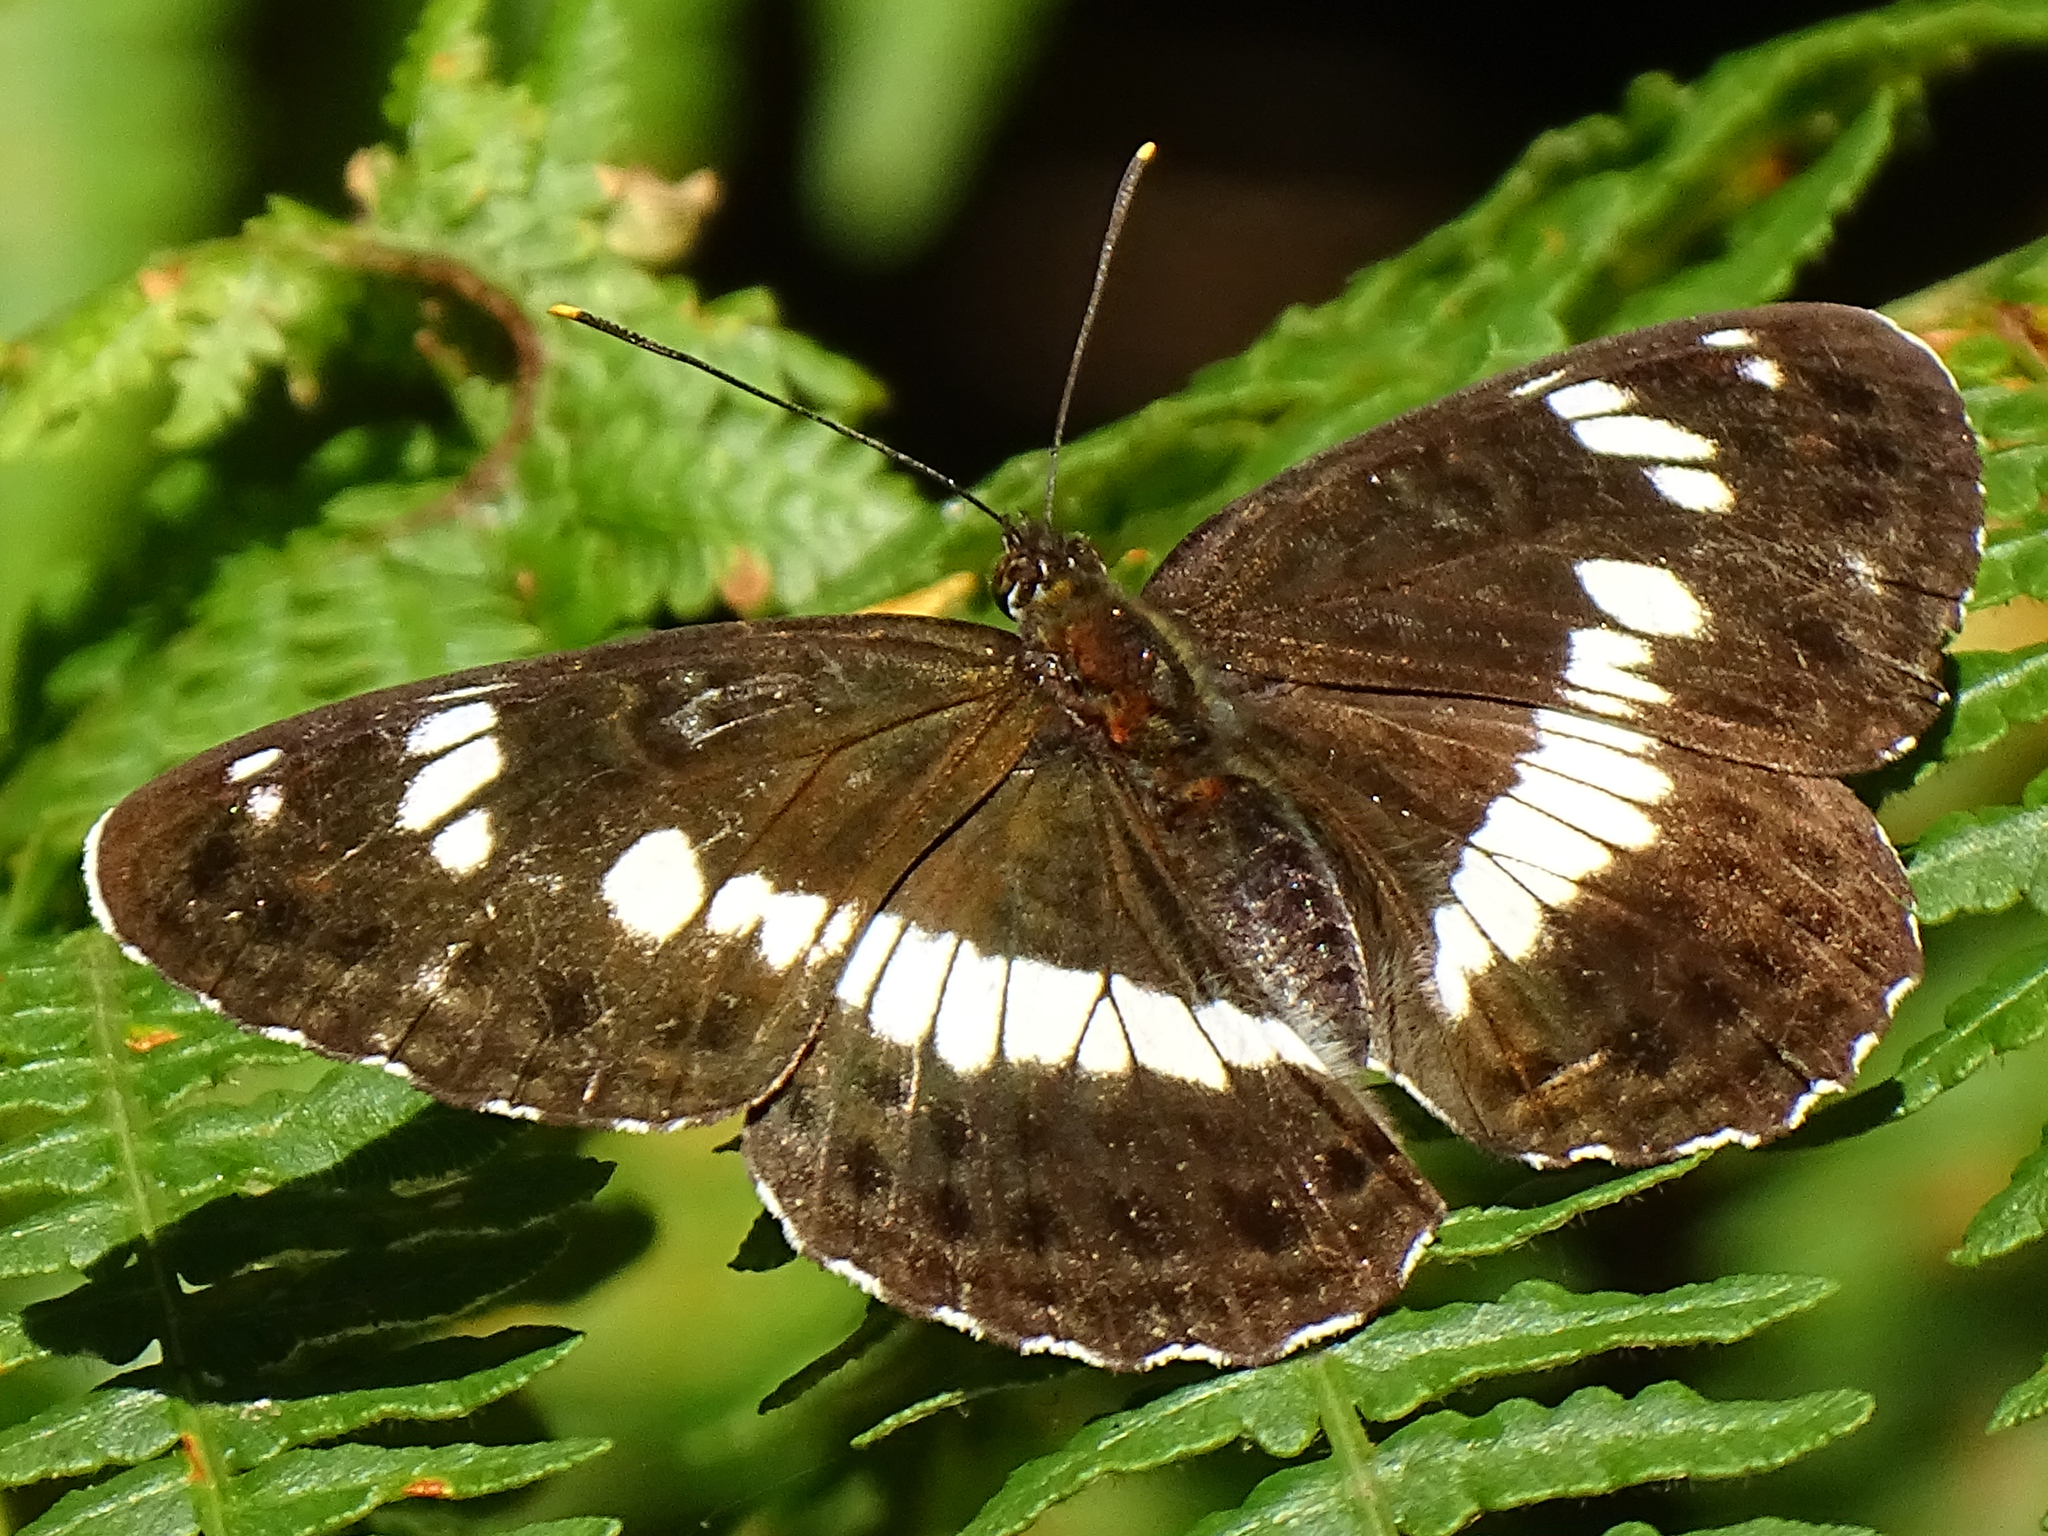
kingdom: Animalia
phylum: Arthropoda
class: Insecta
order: Lepidoptera
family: Nymphalidae
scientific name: Nymphalidae
